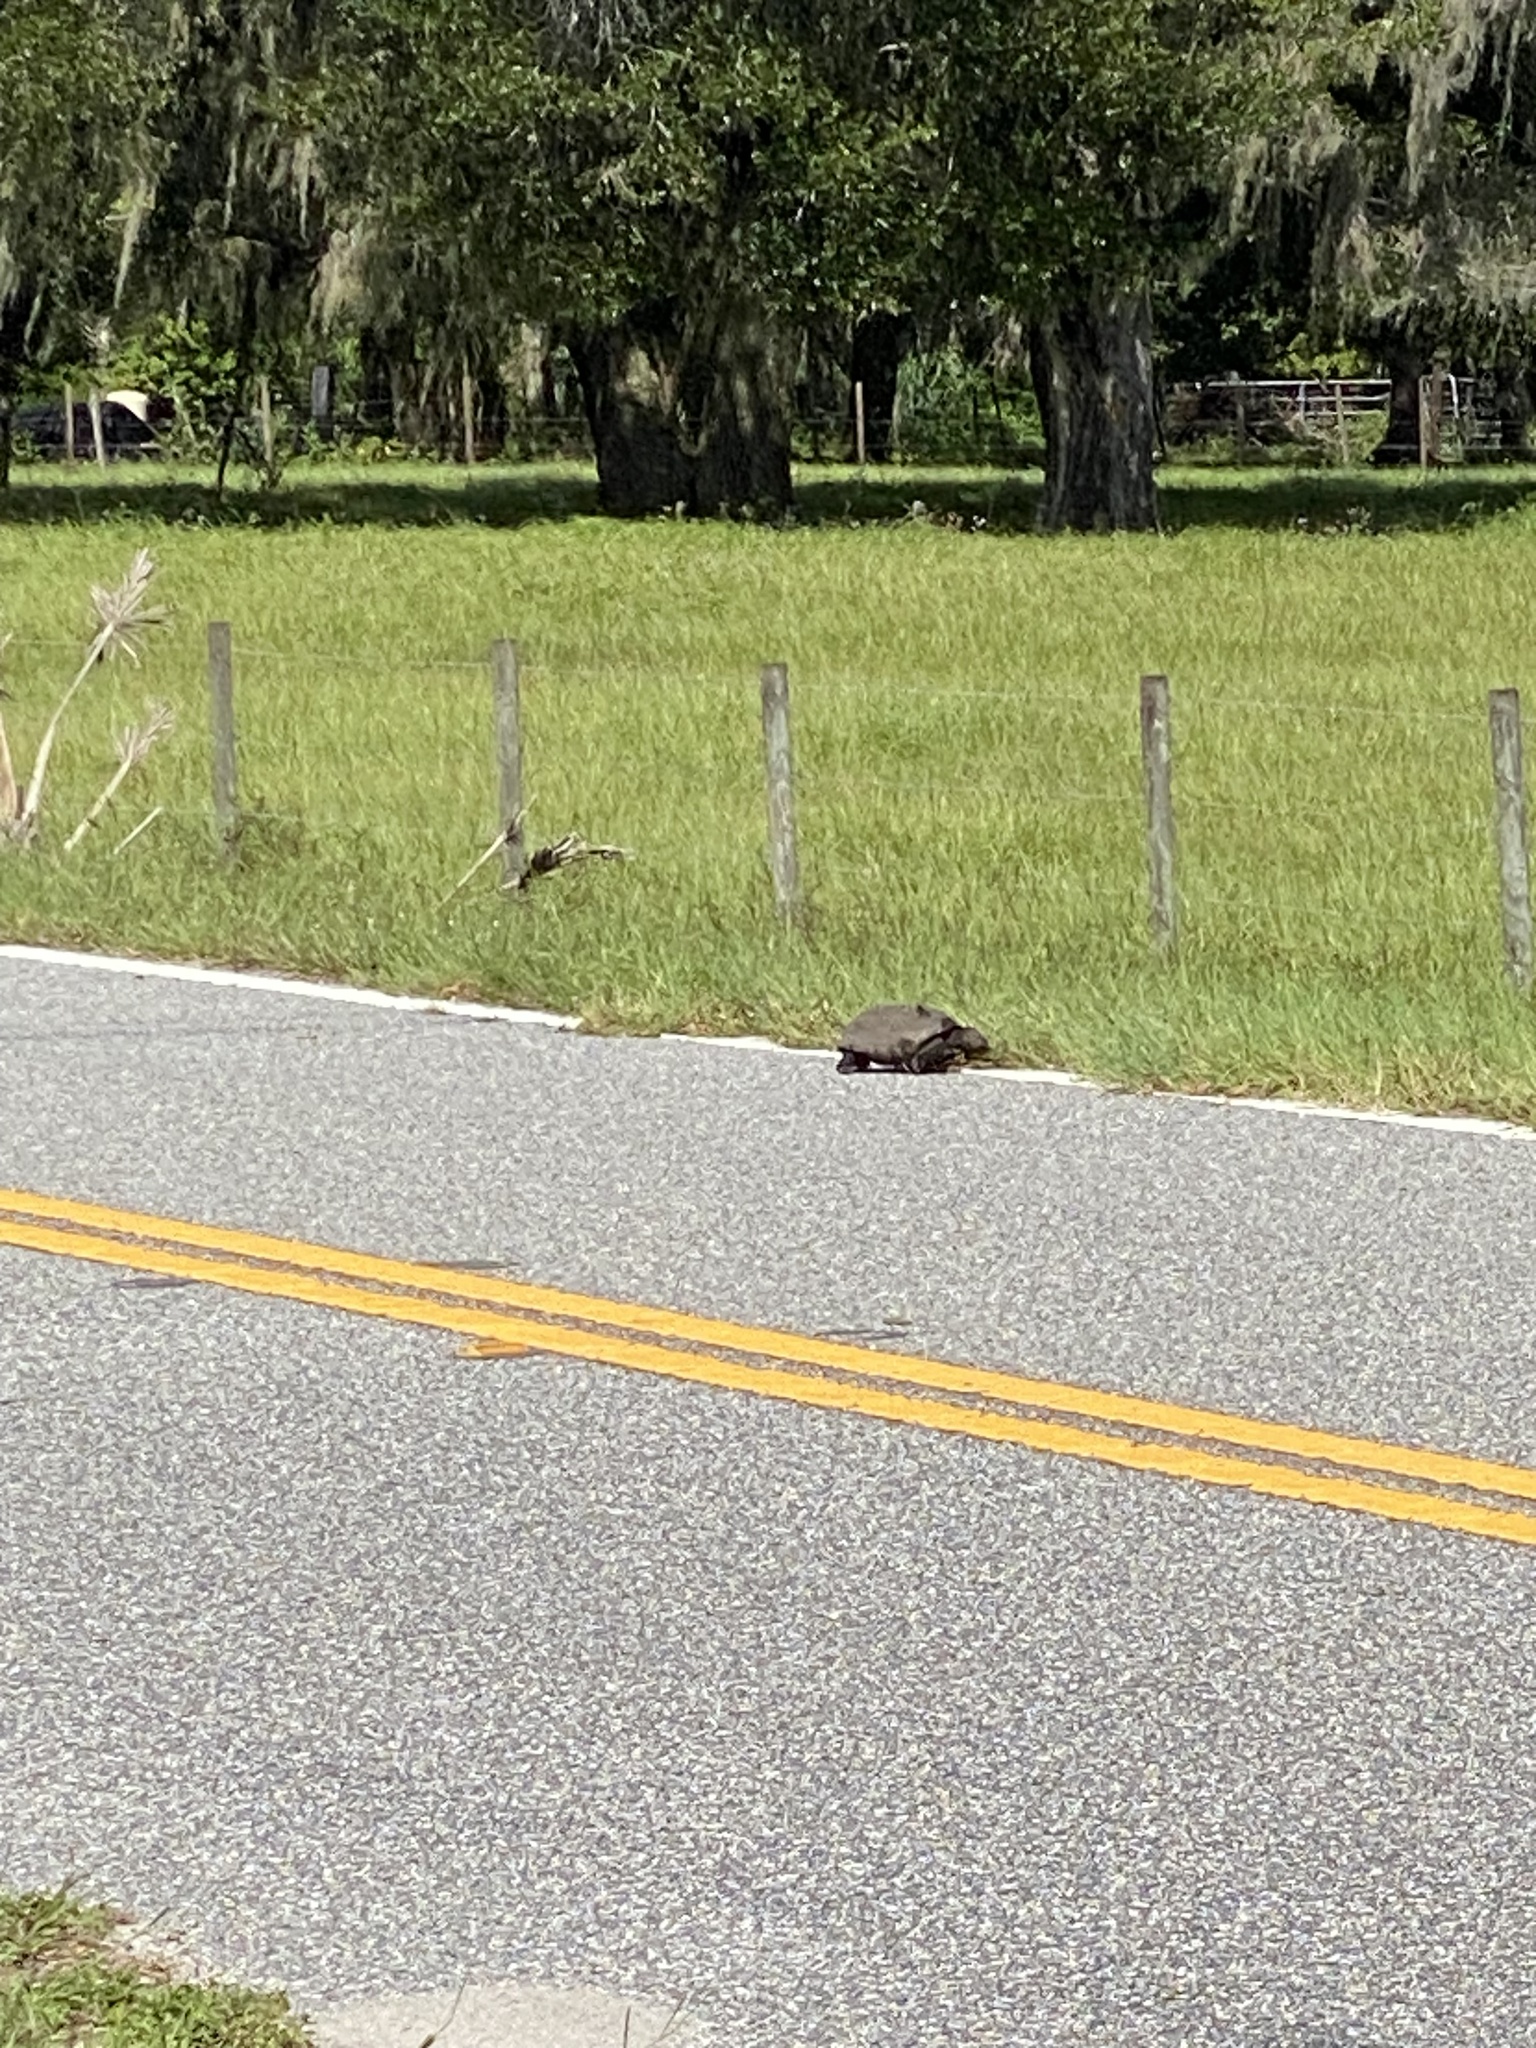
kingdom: Animalia
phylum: Chordata
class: Testudines
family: Testudinidae
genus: Gopherus
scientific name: Gopherus polyphemus
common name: Florida gopher tortoise
